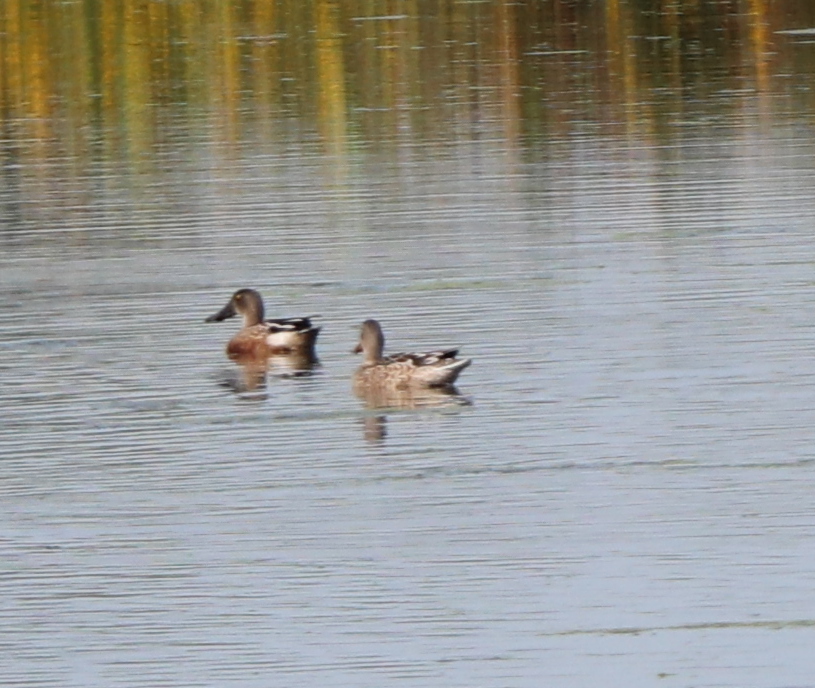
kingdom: Animalia
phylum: Chordata
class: Aves
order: Anseriformes
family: Anatidae
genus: Spatula
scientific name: Spatula clypeata
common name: Northern shoveler
